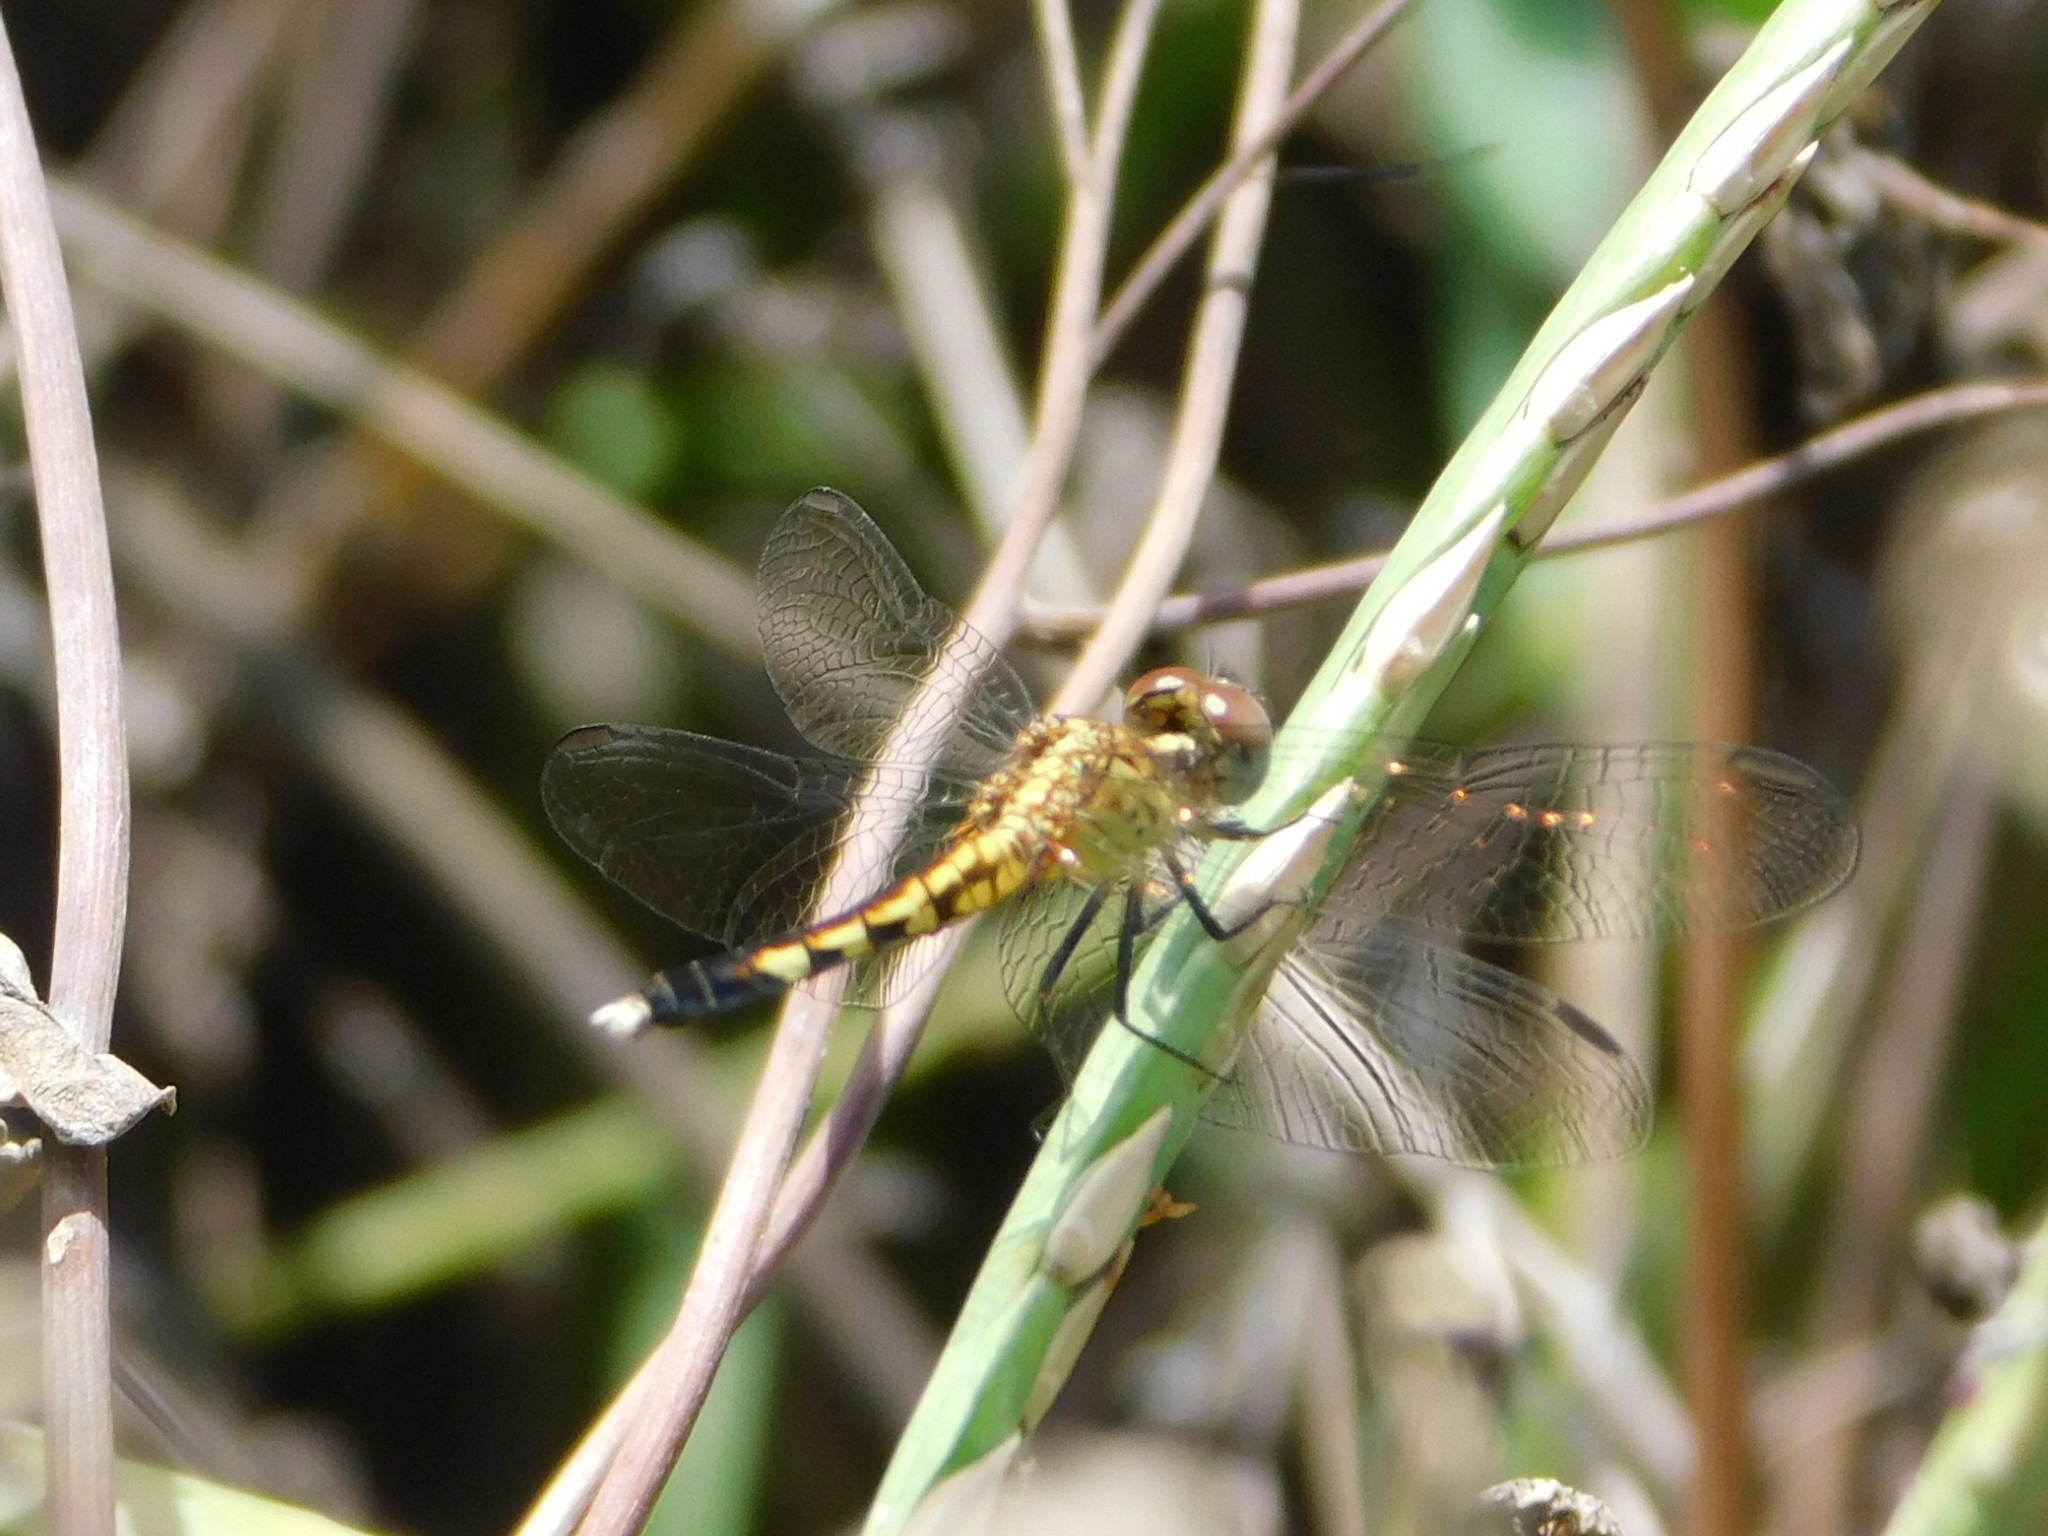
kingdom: Animalia
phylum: Arthropoda
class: Insecta
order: Odonata
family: Libellulidae
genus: Erythrodiplax
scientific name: Erythrodiplax minuscula
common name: Little blue dragonlet
